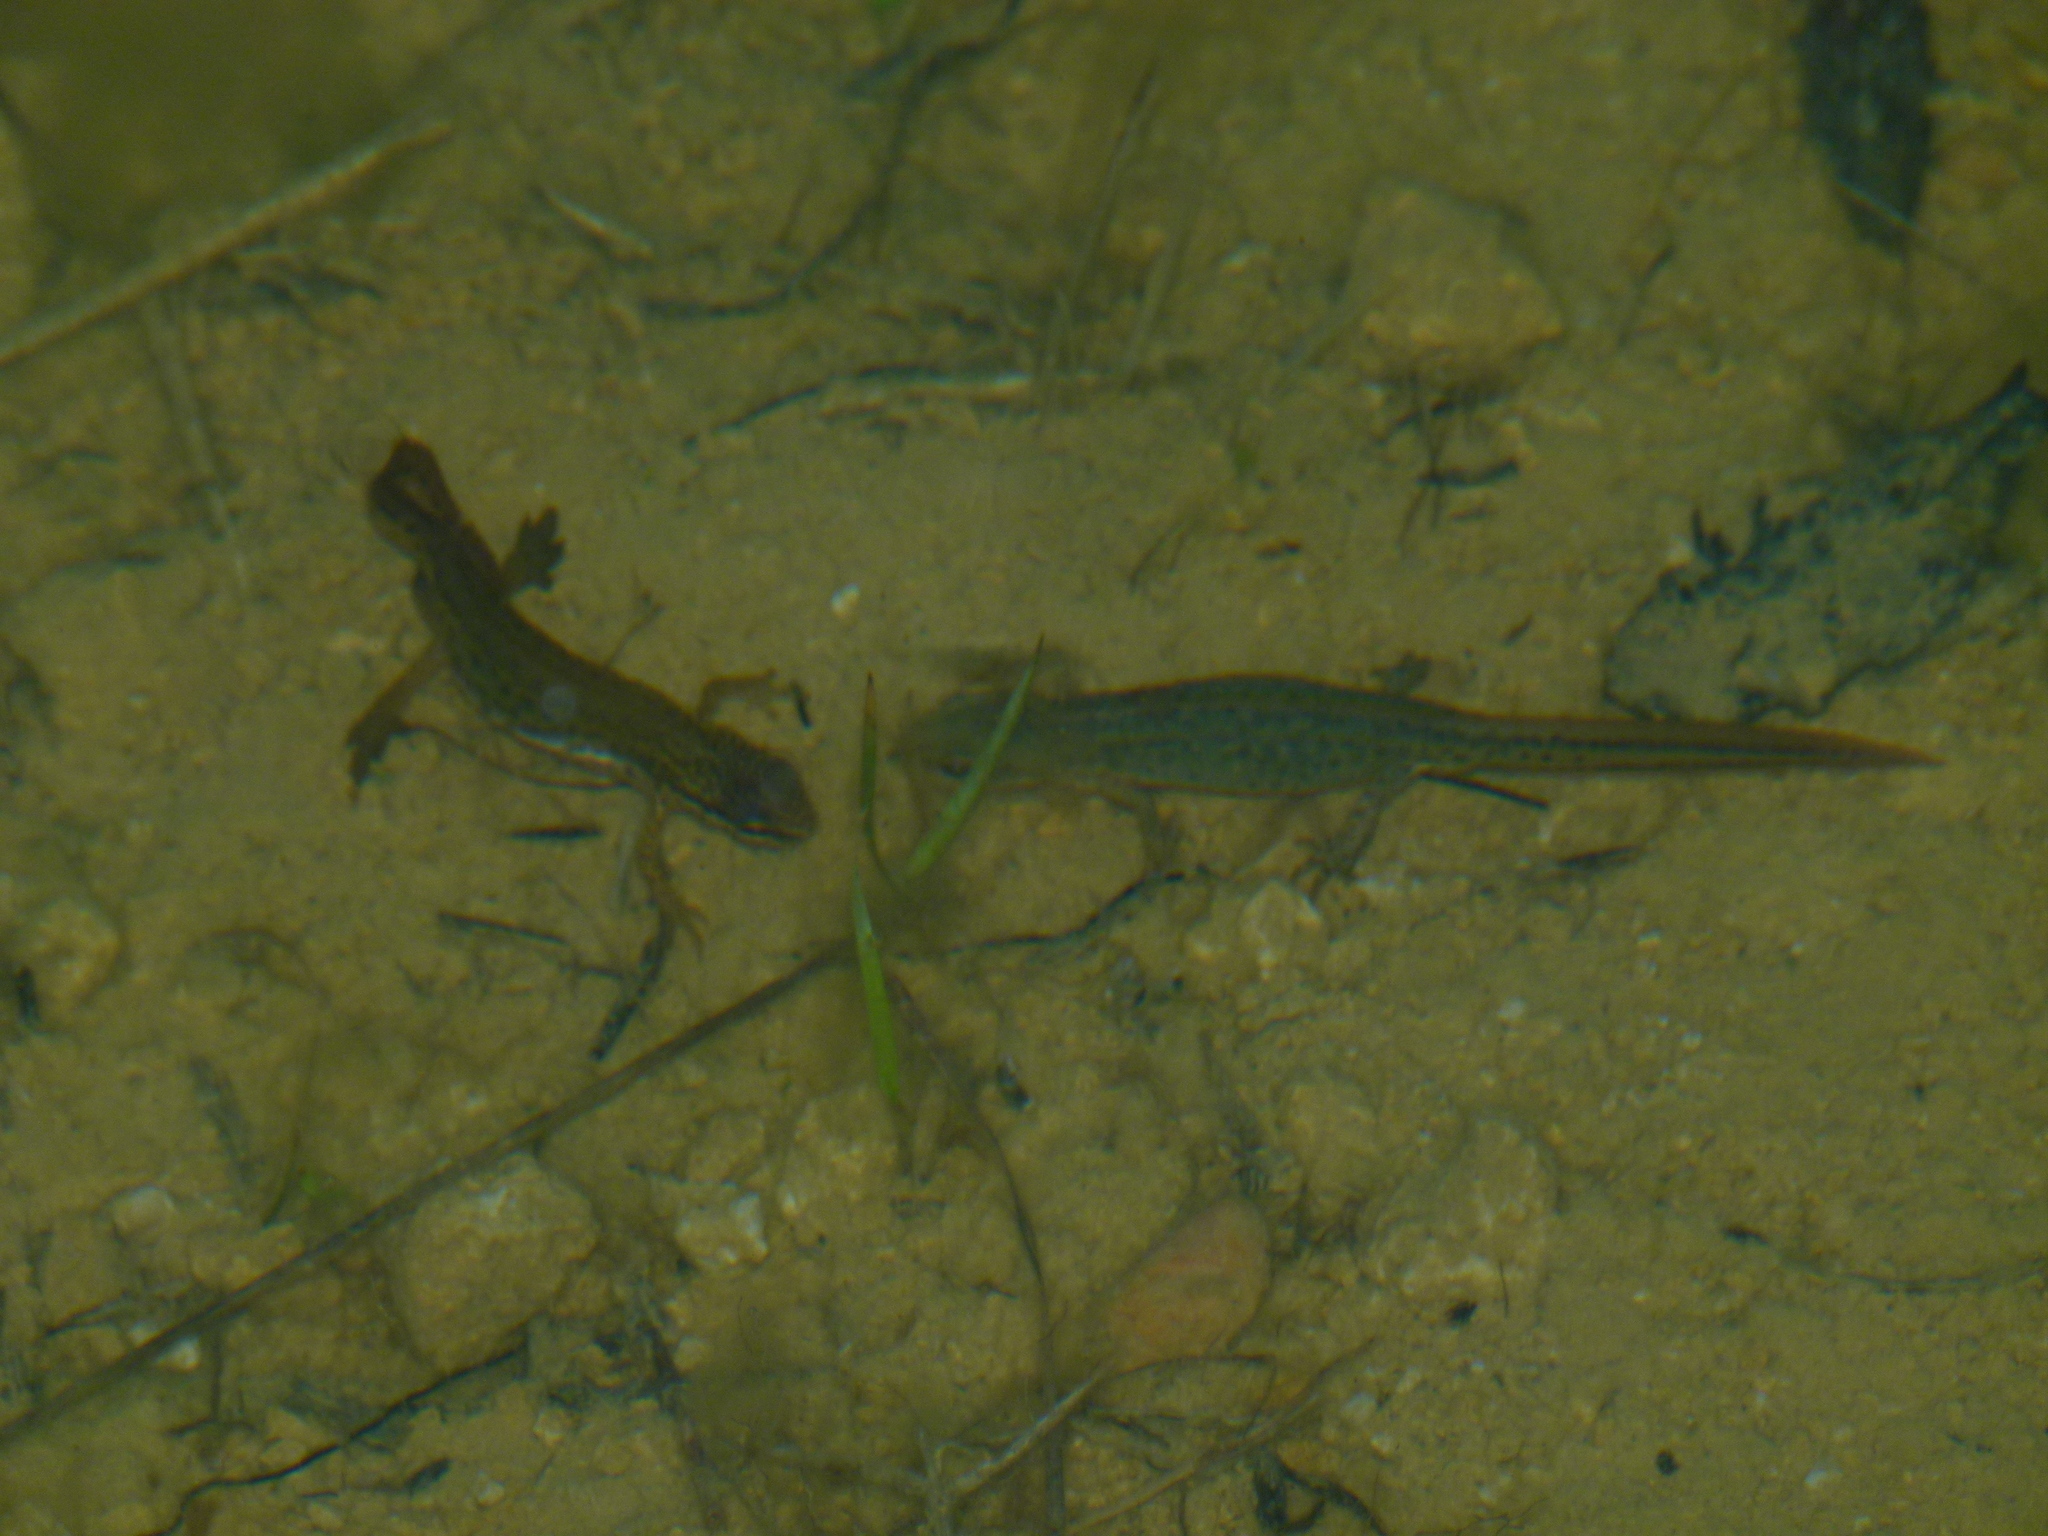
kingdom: Animalia
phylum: Chordata
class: Amphibia
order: Caudata
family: Salamandridae
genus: Lissotriton
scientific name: Lissotriton helveticus
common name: Palmate newt
